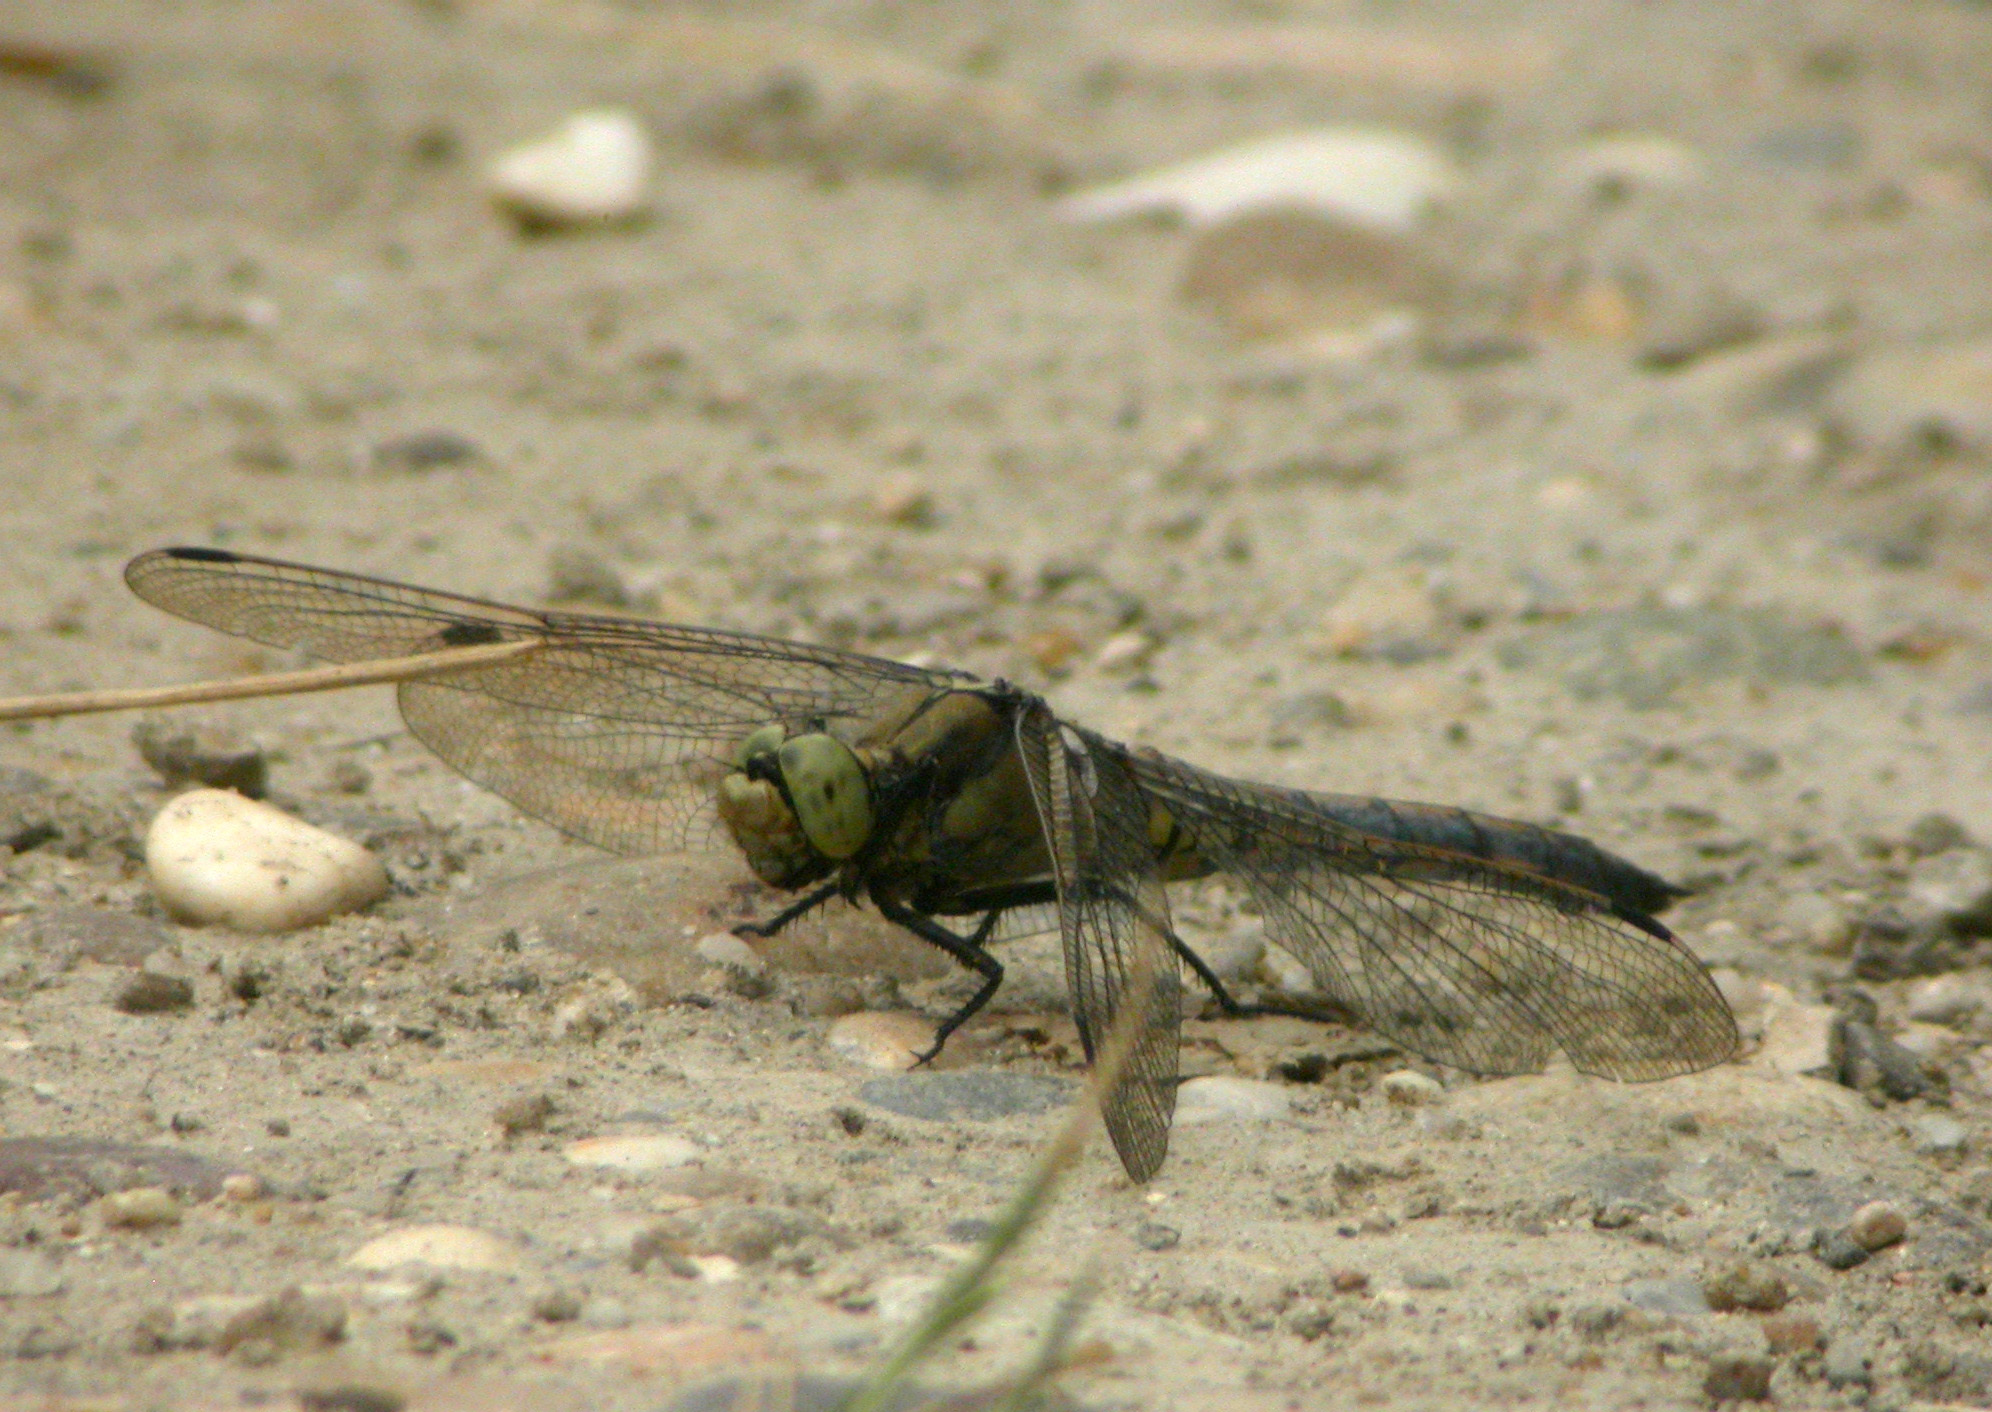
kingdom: Animalia
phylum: Arthropoda
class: Insecta
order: Odonata
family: Libellulidae
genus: Orthetrum
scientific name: Orthetrum cancellatum
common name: Black-tailed skimmer
